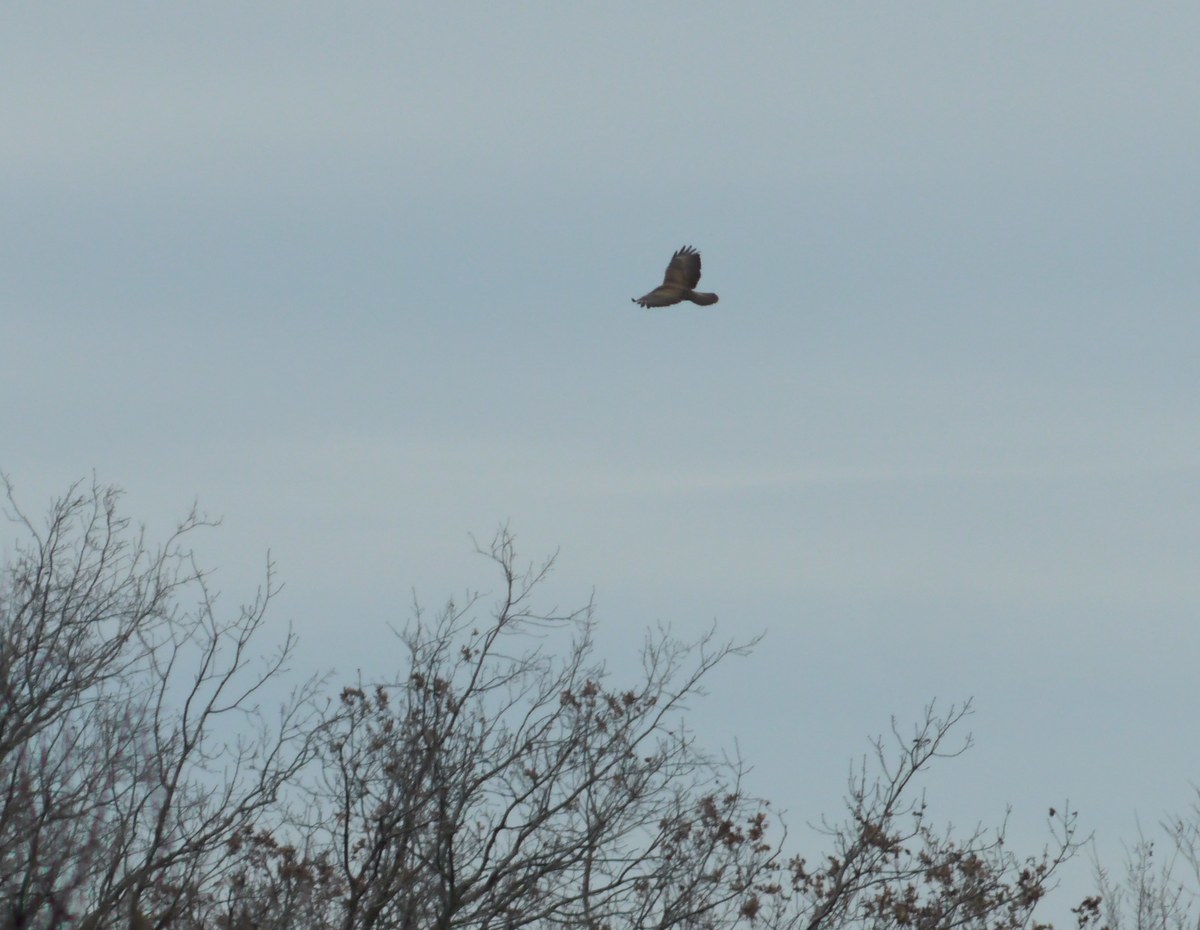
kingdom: Animalia
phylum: Chordata
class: Aves
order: Accipitriformes
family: Accipitridae
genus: Buteo
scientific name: Buteo buteo
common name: Common buzzard
